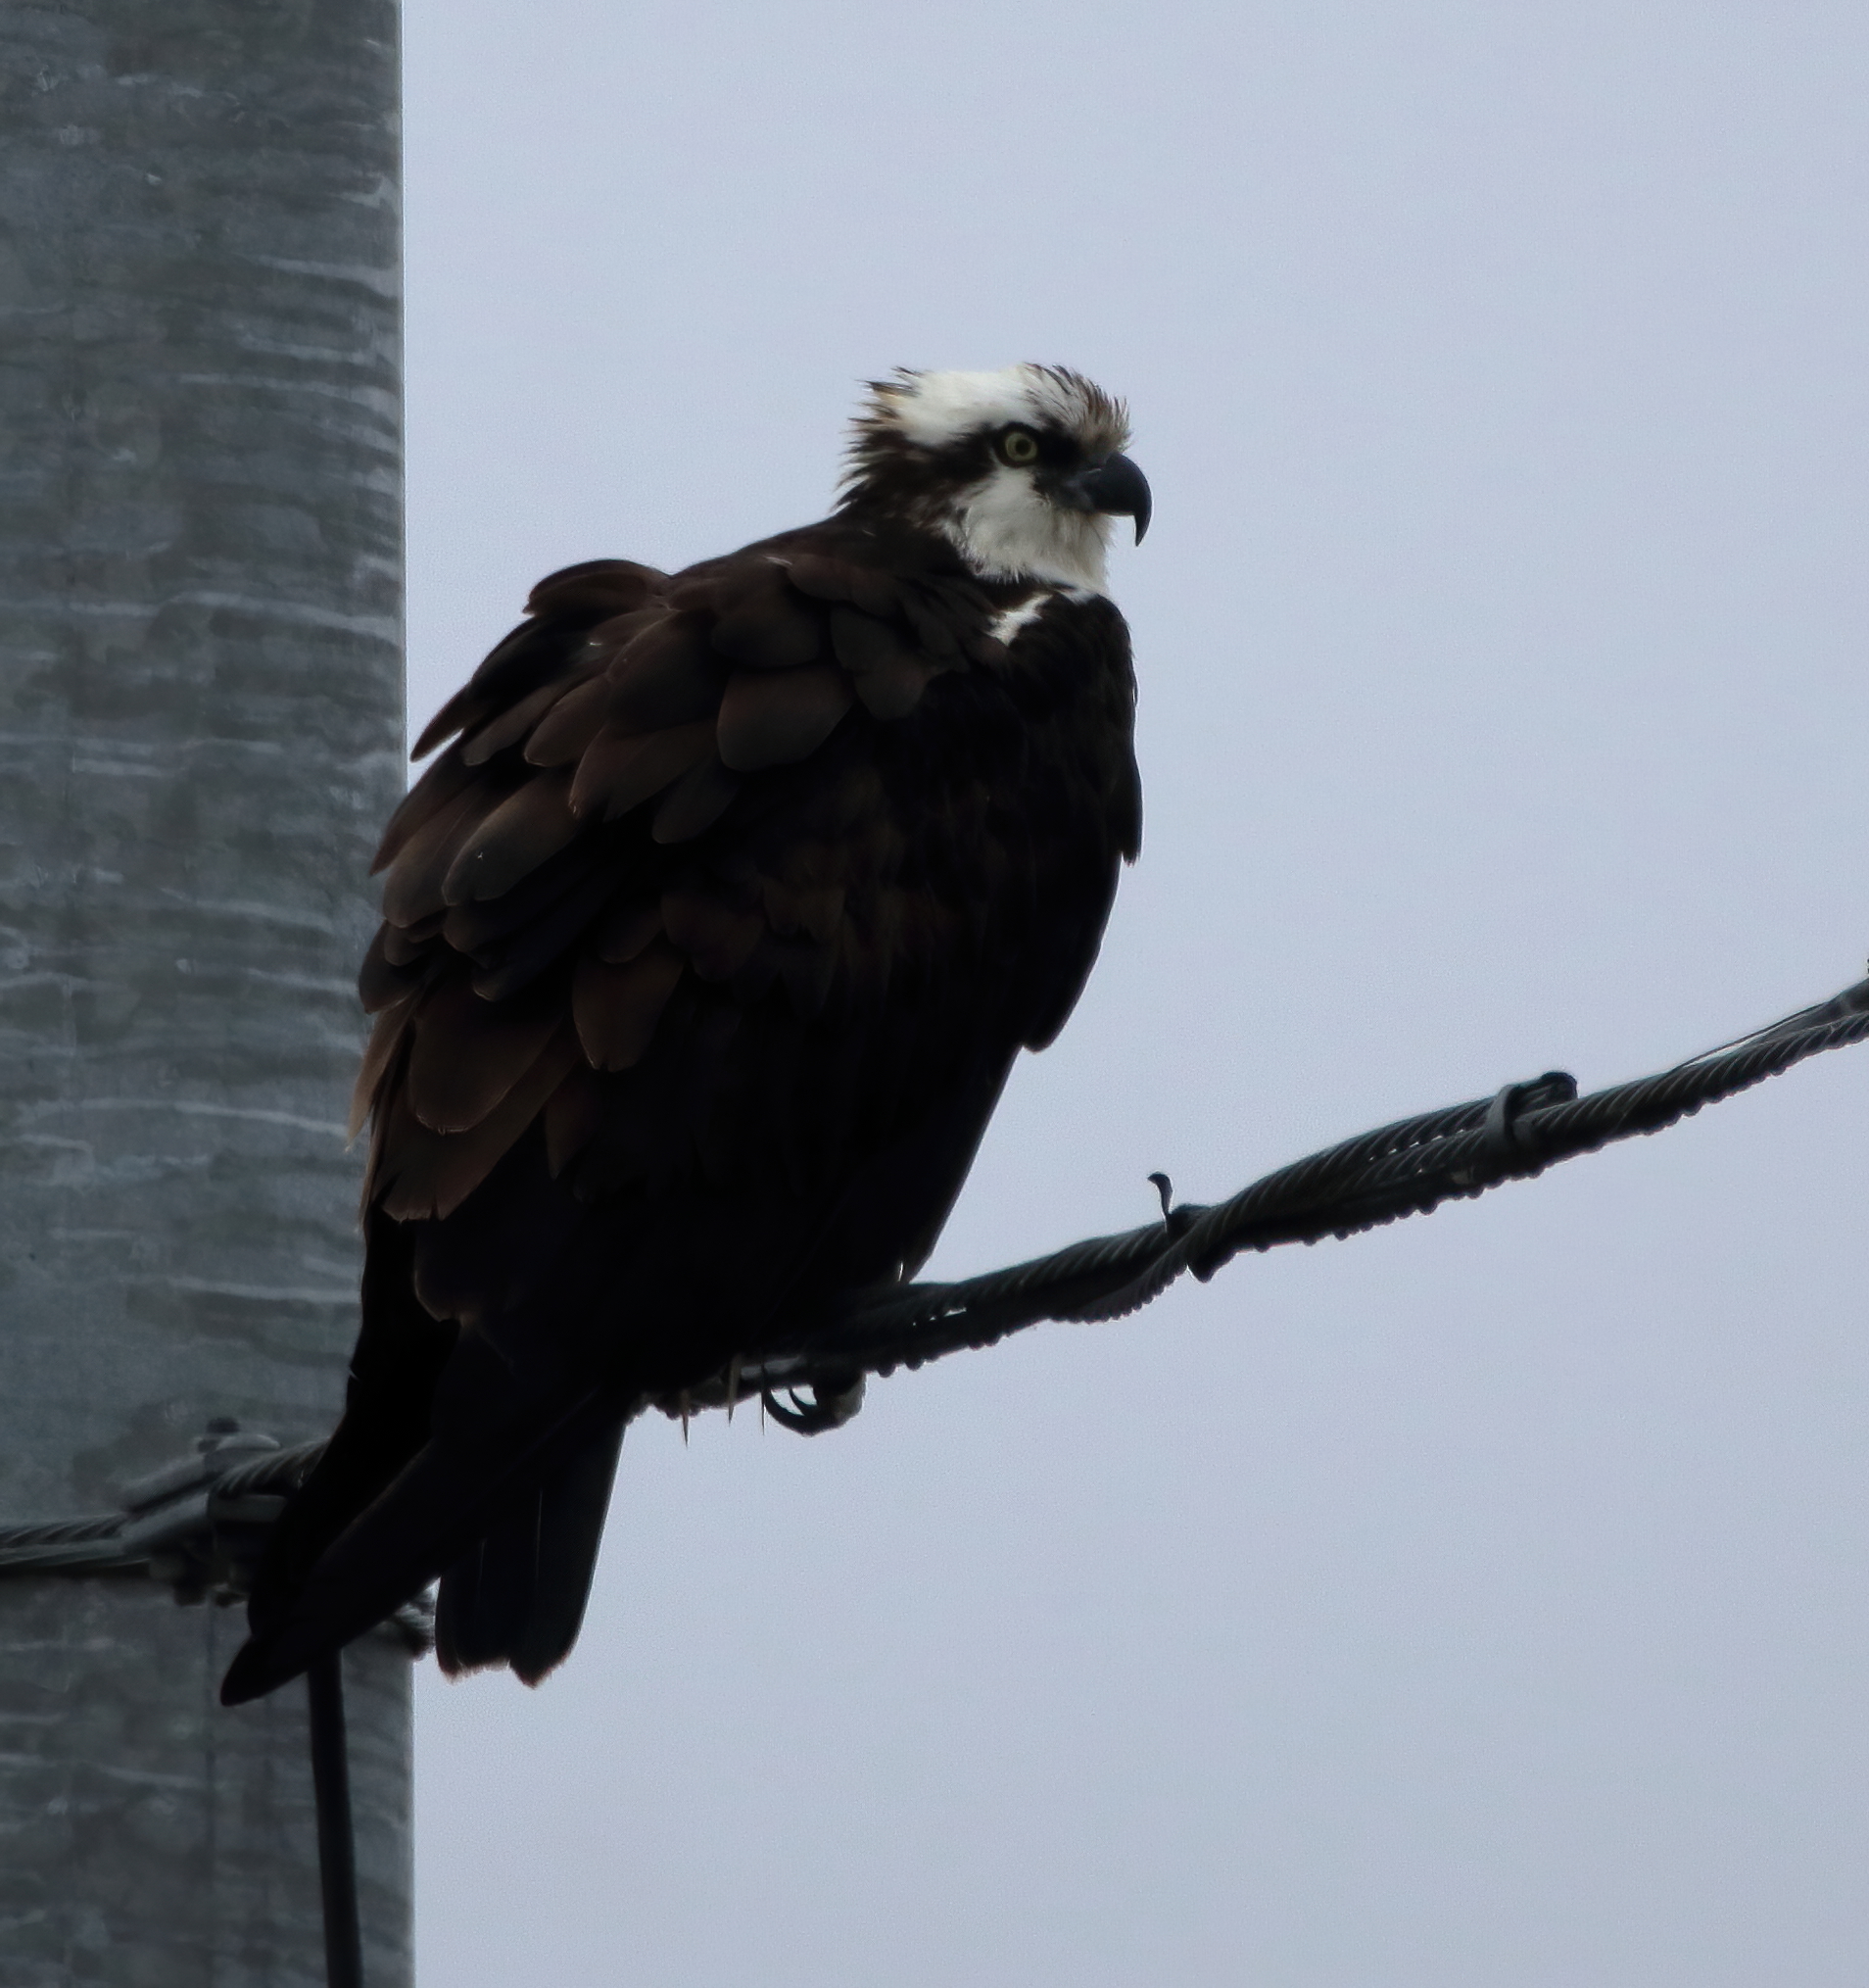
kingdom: Animalia
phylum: Chordata
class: Aves
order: Accipitriformes
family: Pandionidae
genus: Pandion
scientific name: Pandion haliaetus
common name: Osprey
